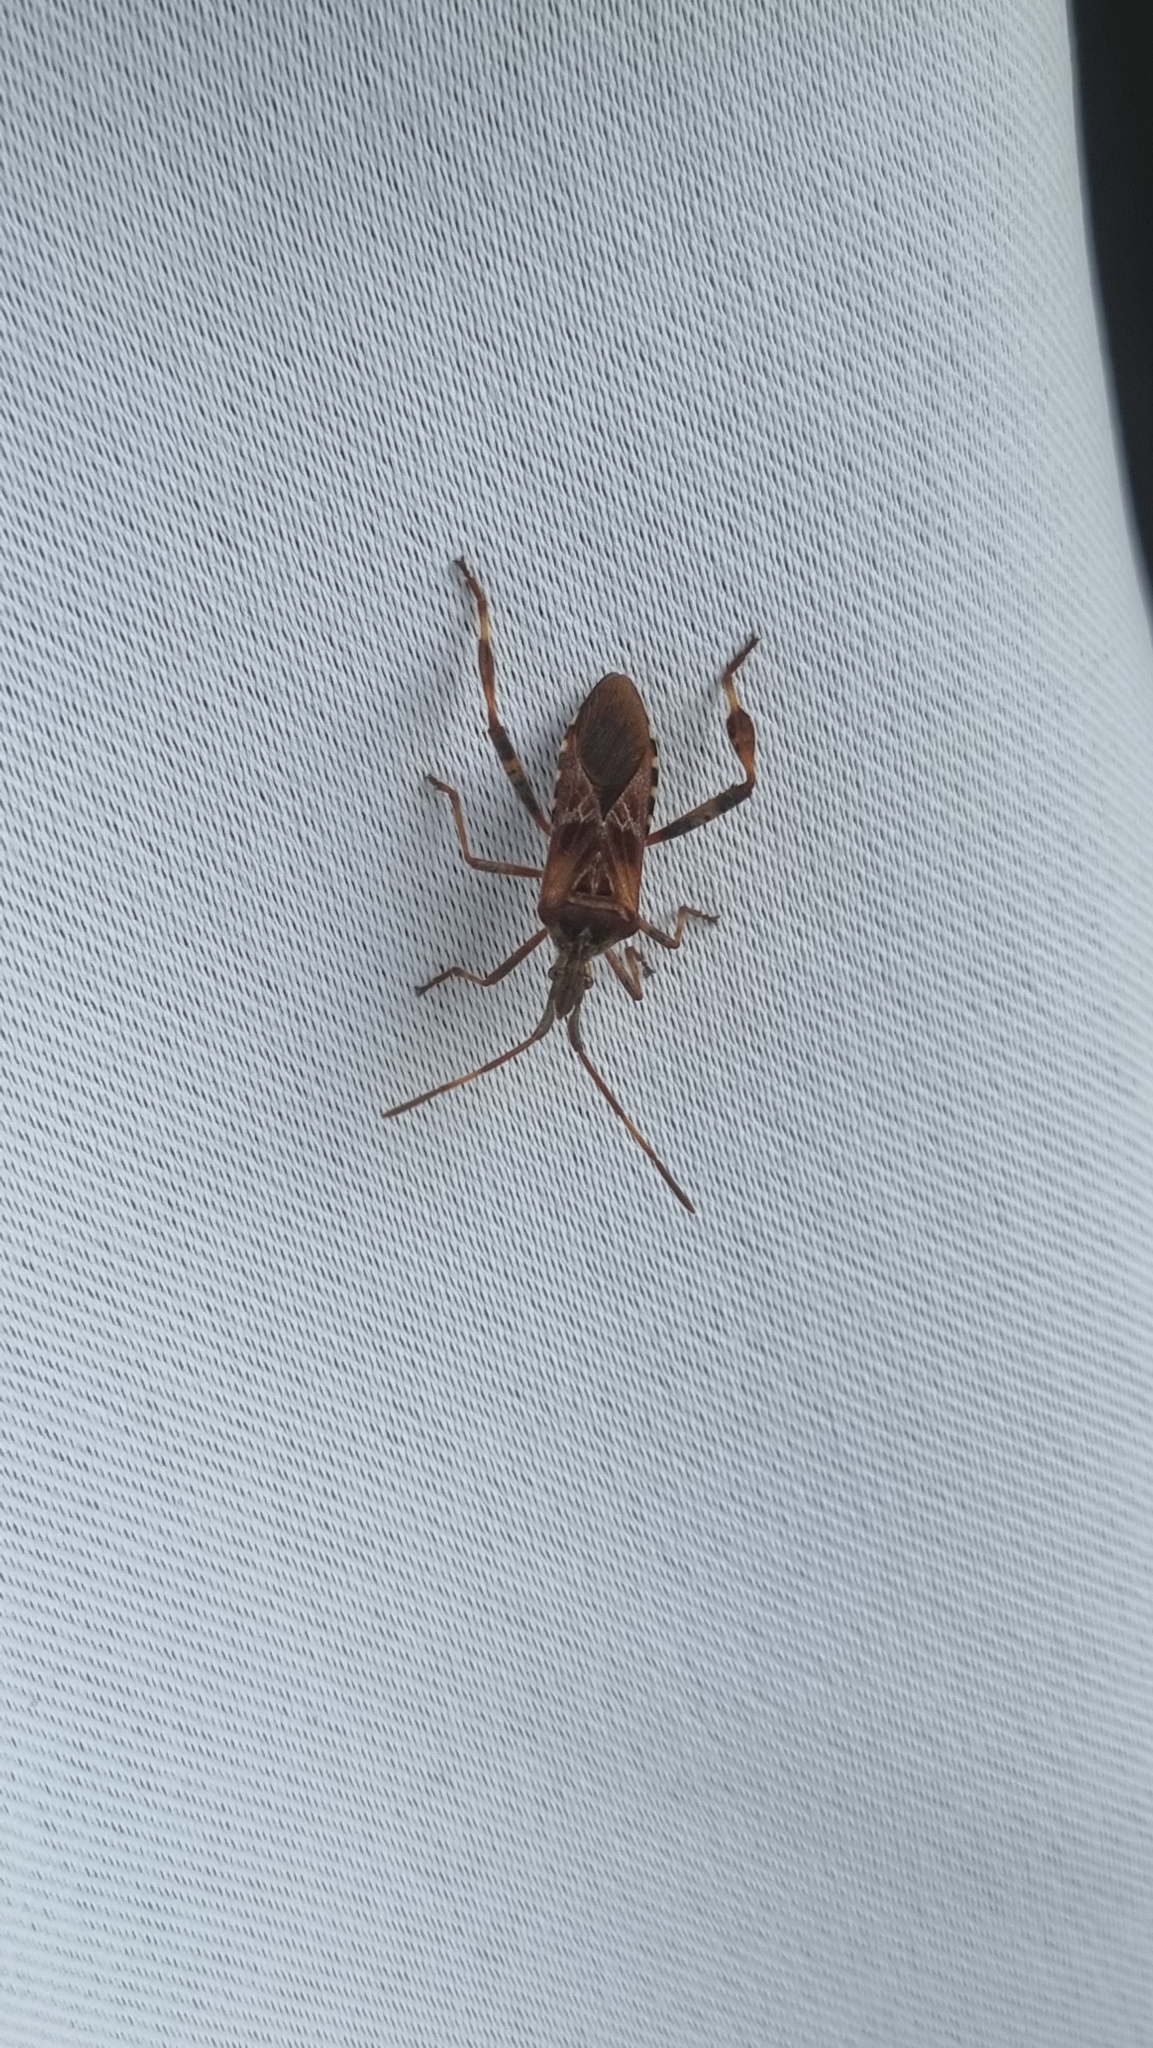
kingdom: Animalia
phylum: Arthropoda
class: Insecta
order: Hemiptera
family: Coreidae
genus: Leptoglossus
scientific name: Leptoglossus occidentalis
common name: Western conifer-seed bug
